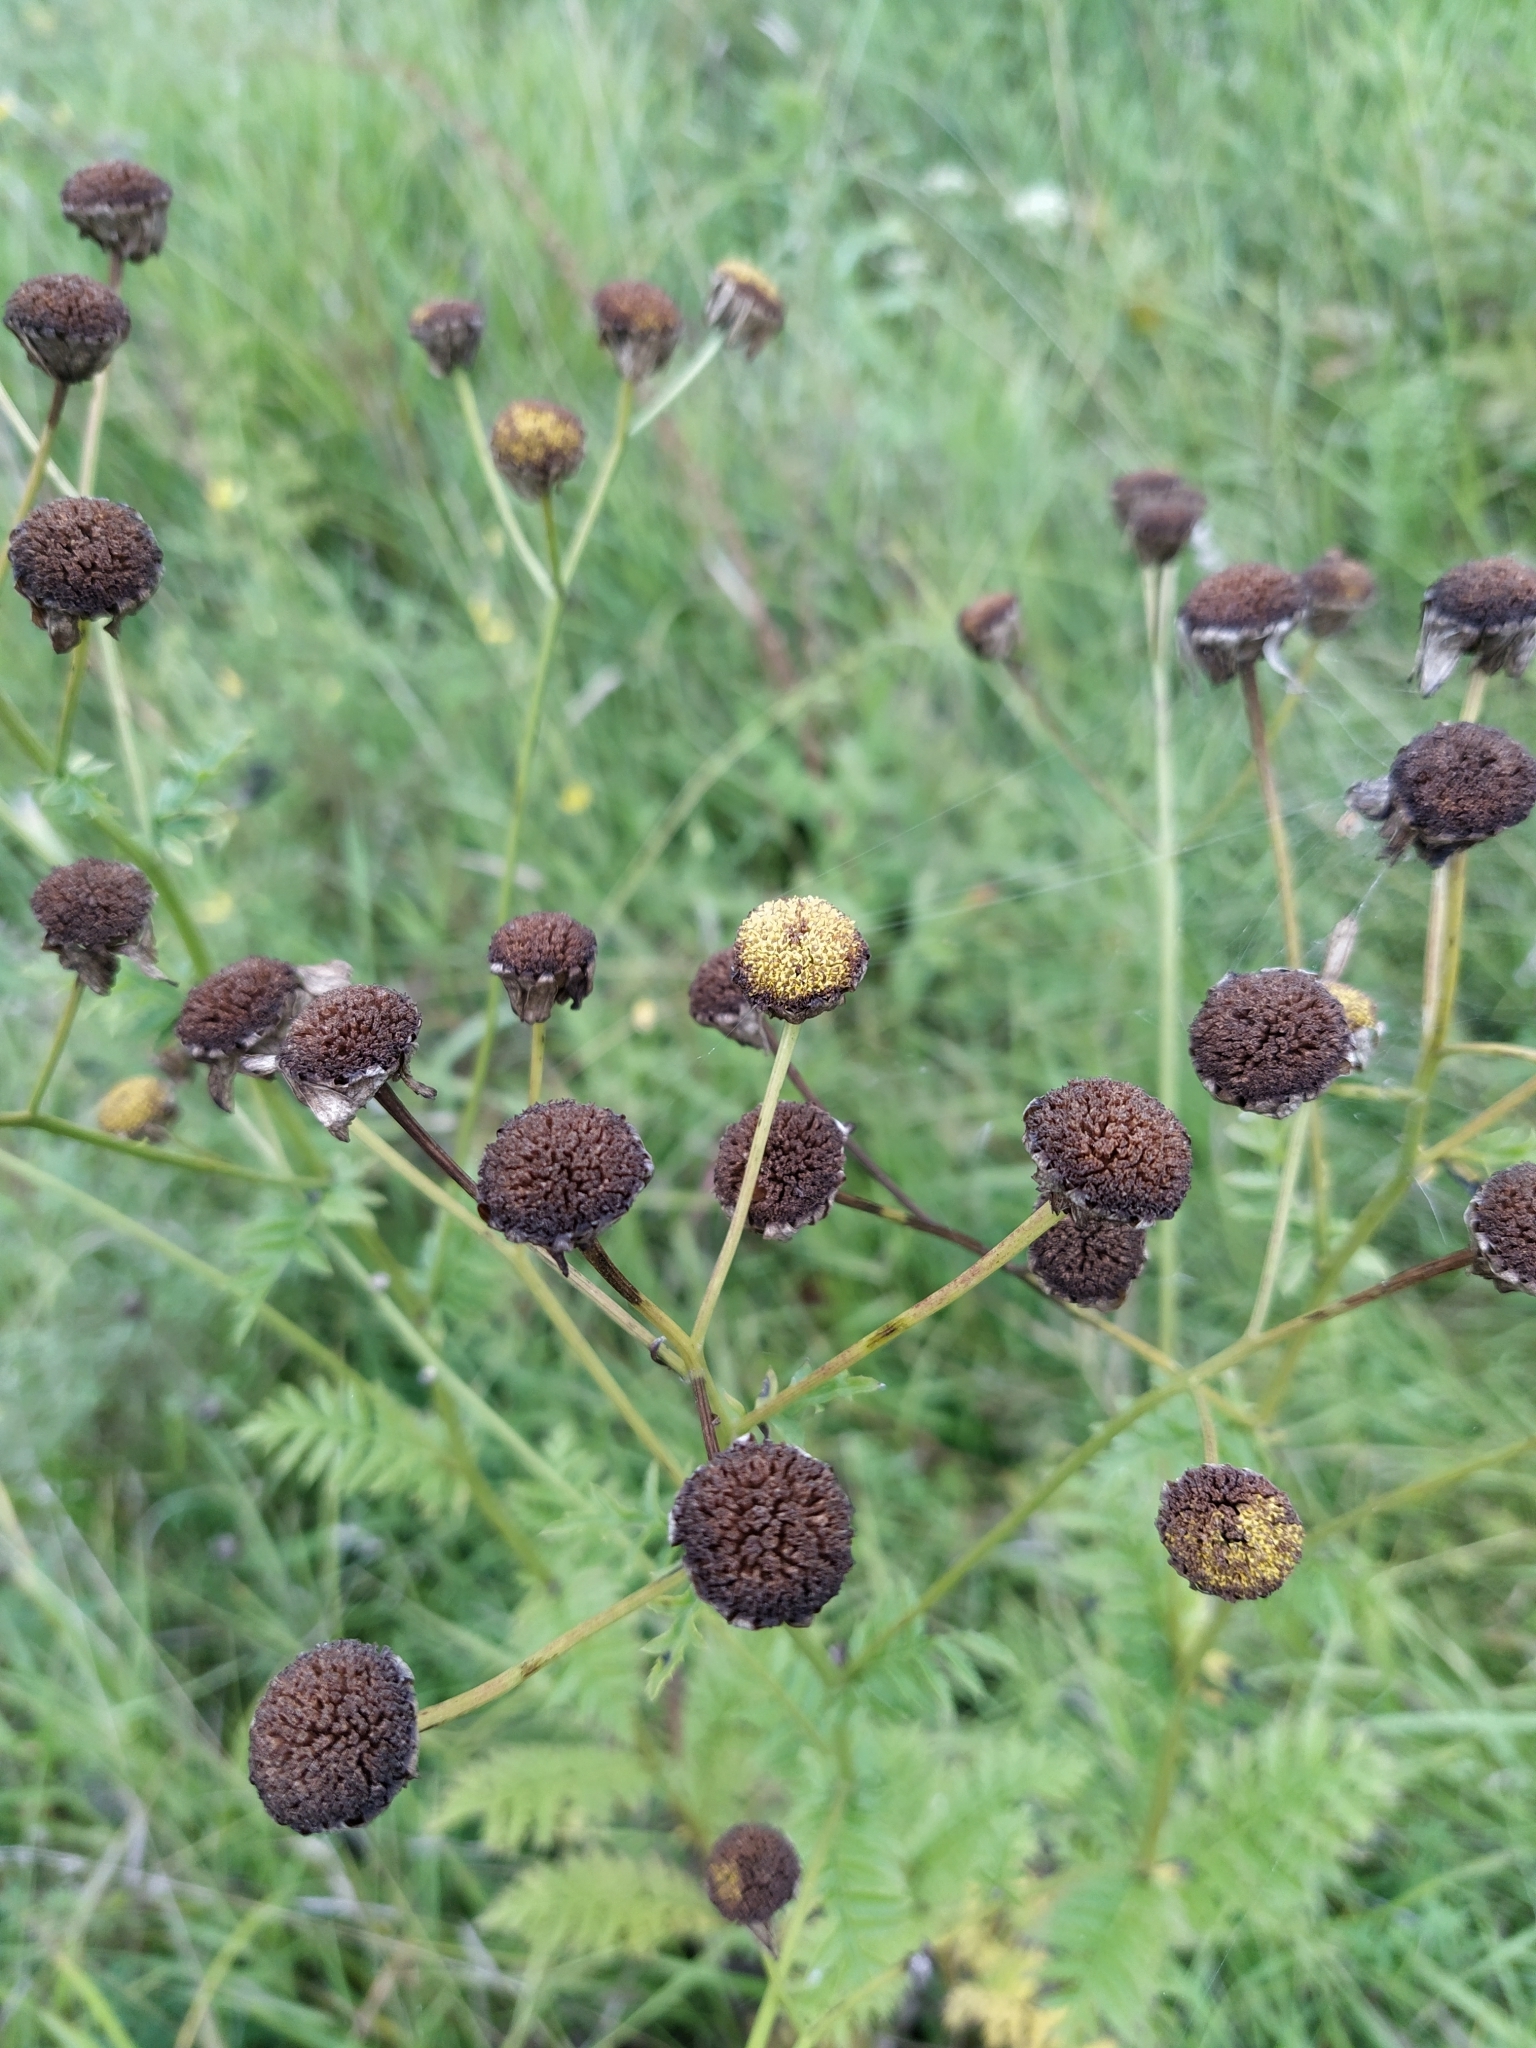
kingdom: Plantae
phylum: Tracheophyta
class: Magnoliopsida
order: Asterales
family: Asteraceae
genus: Tanacetum
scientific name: Tanacetum corymbosum
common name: Scentless feverfew
